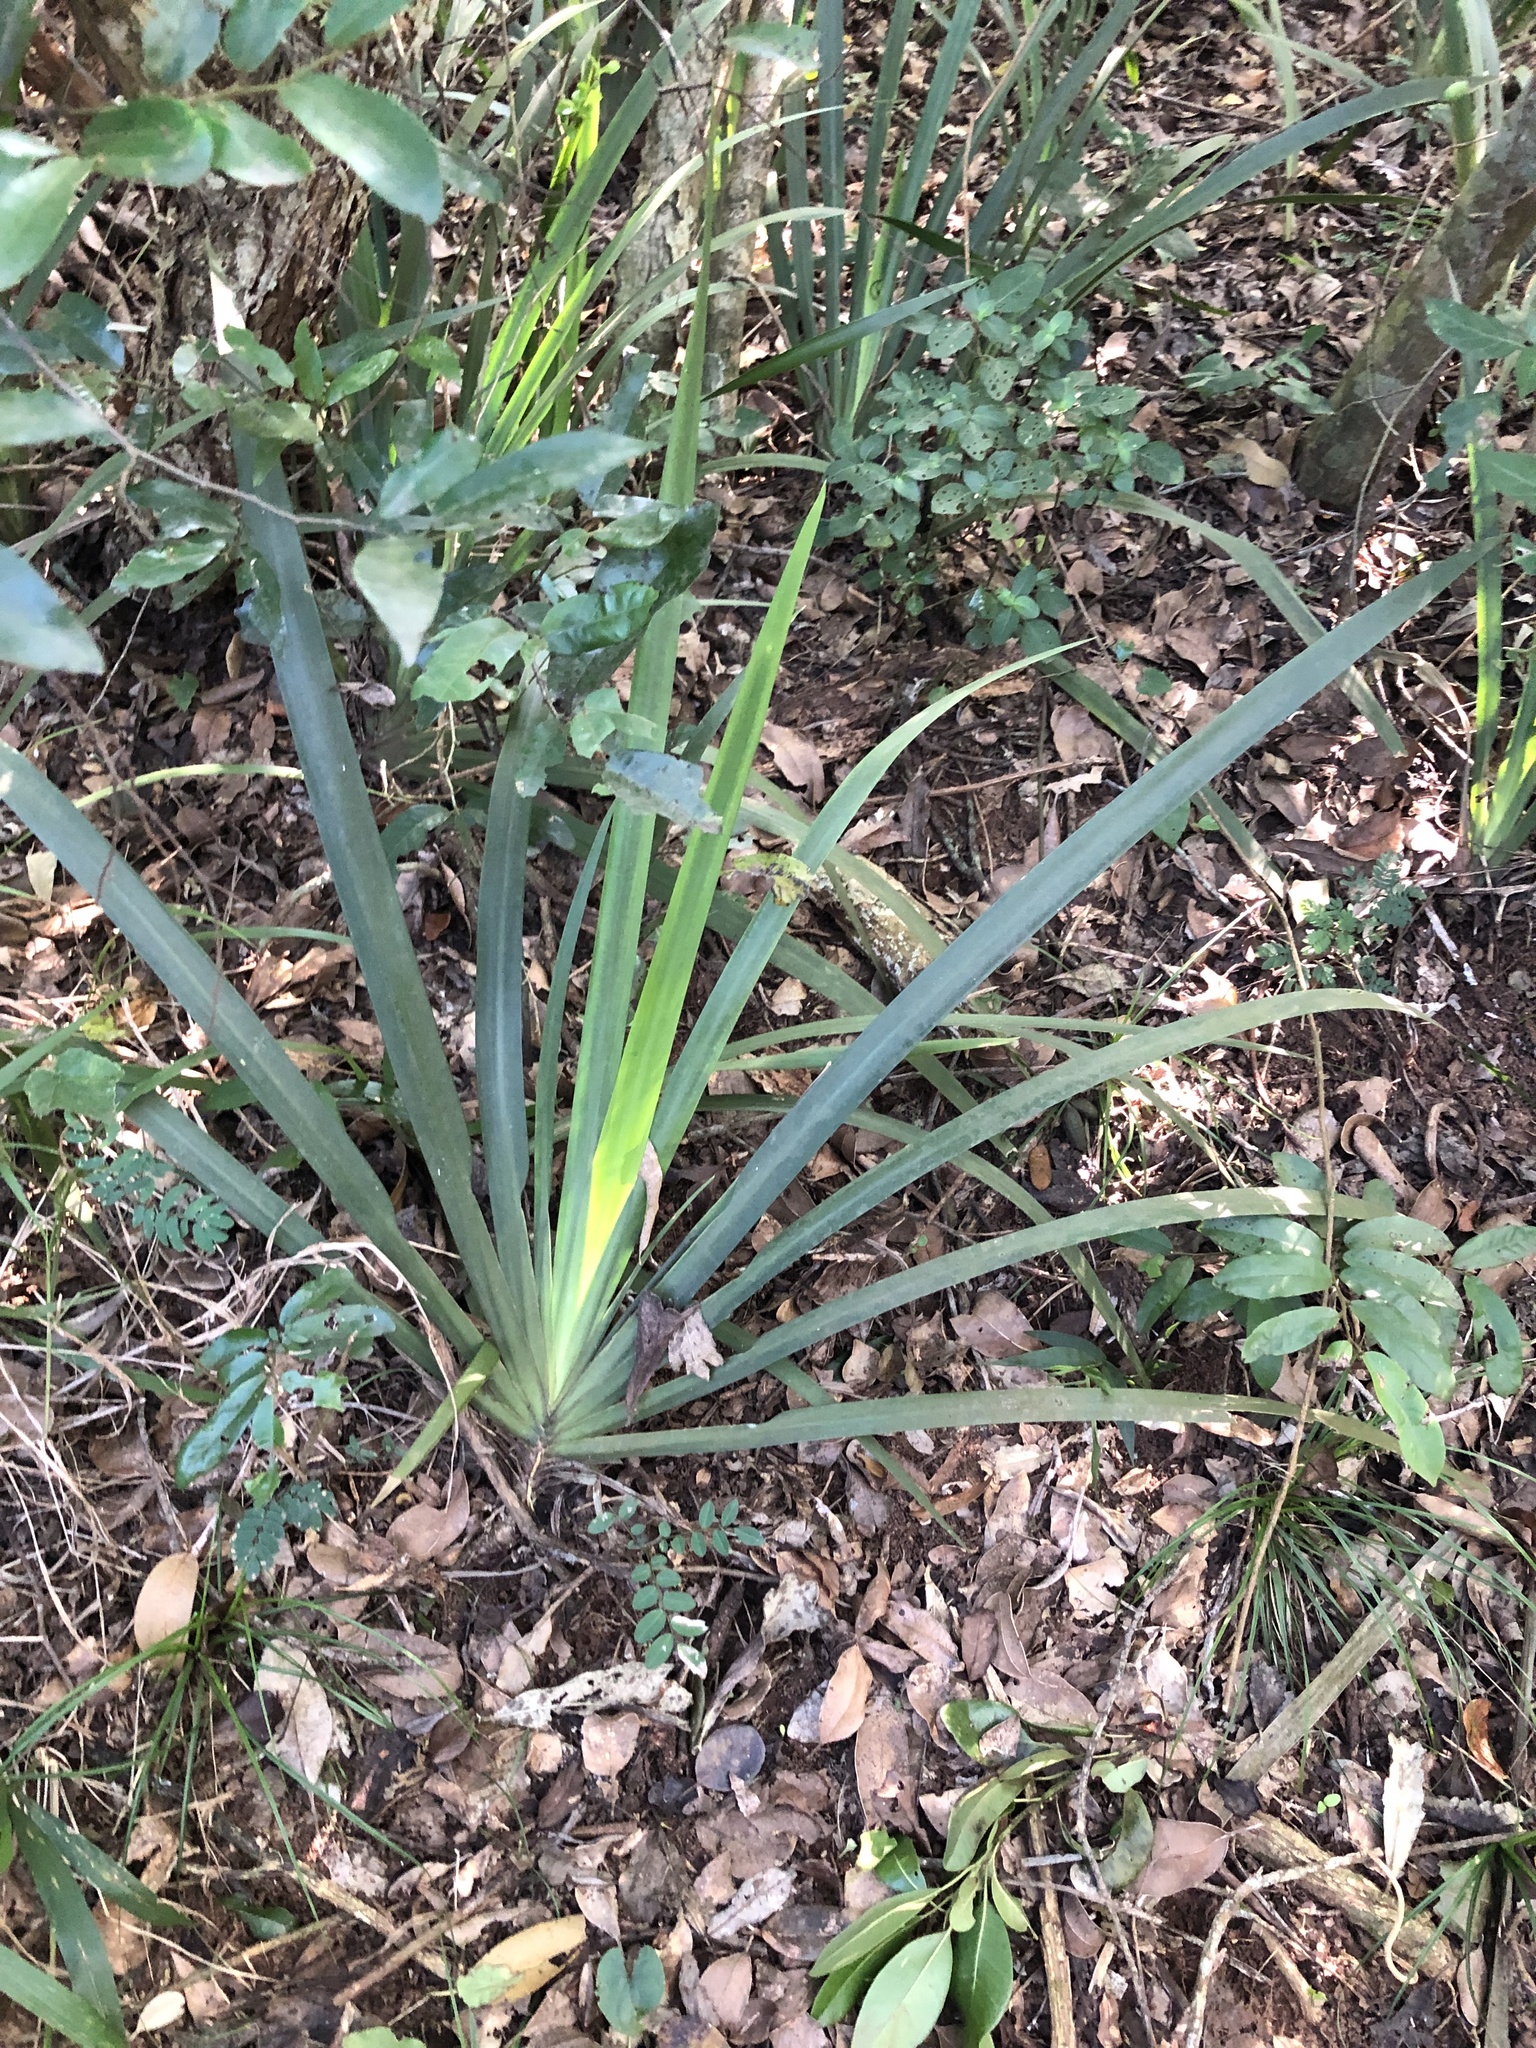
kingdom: Plantae
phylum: Tracheophyta
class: Liliopsida
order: Asparagales
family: Iridaceae
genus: Dietes
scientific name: Dietes iridioides
